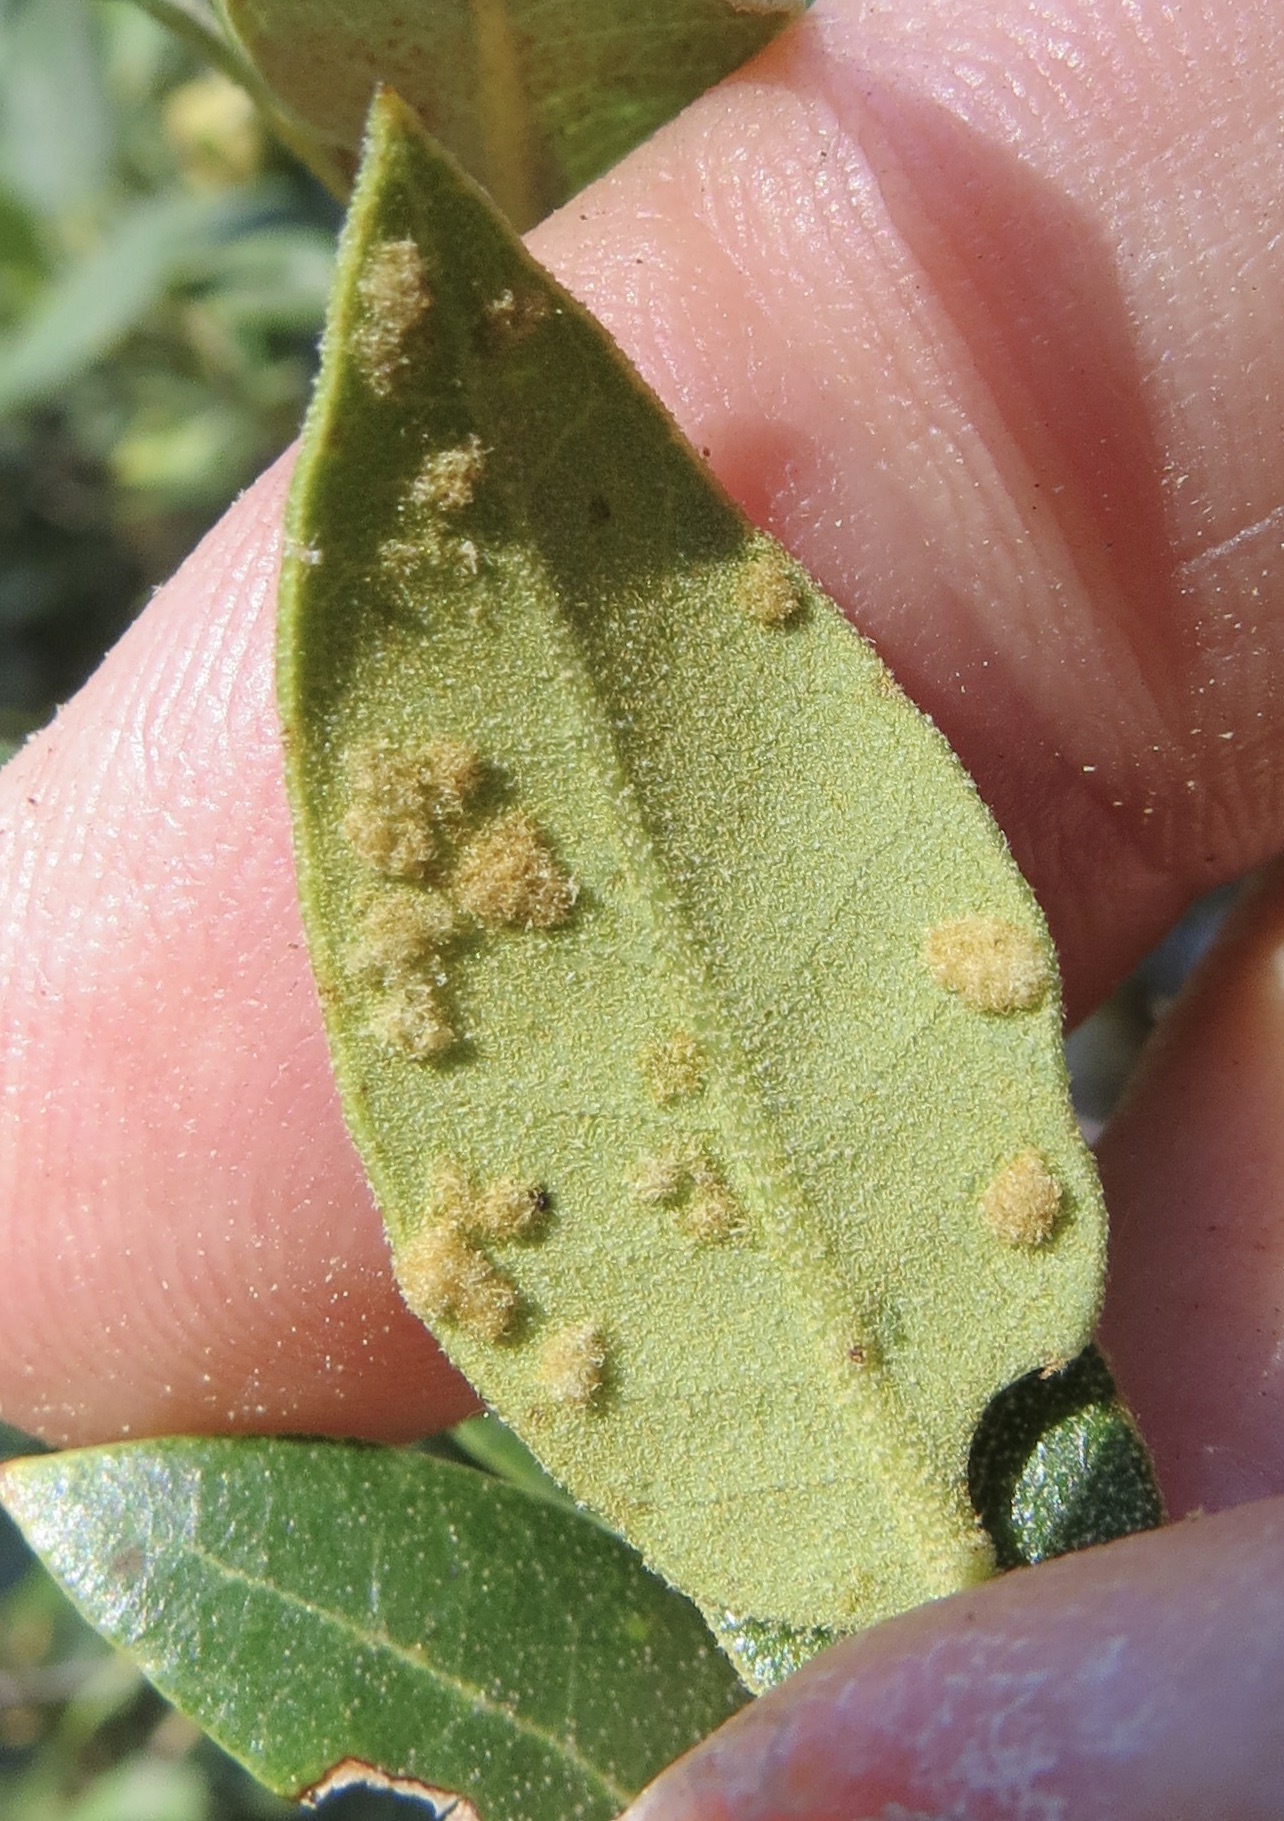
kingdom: Animalia
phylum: Arthropoda
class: Arachnida
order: Trombidiformes
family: Eriophyidae
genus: Aceria
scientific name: Aceria
